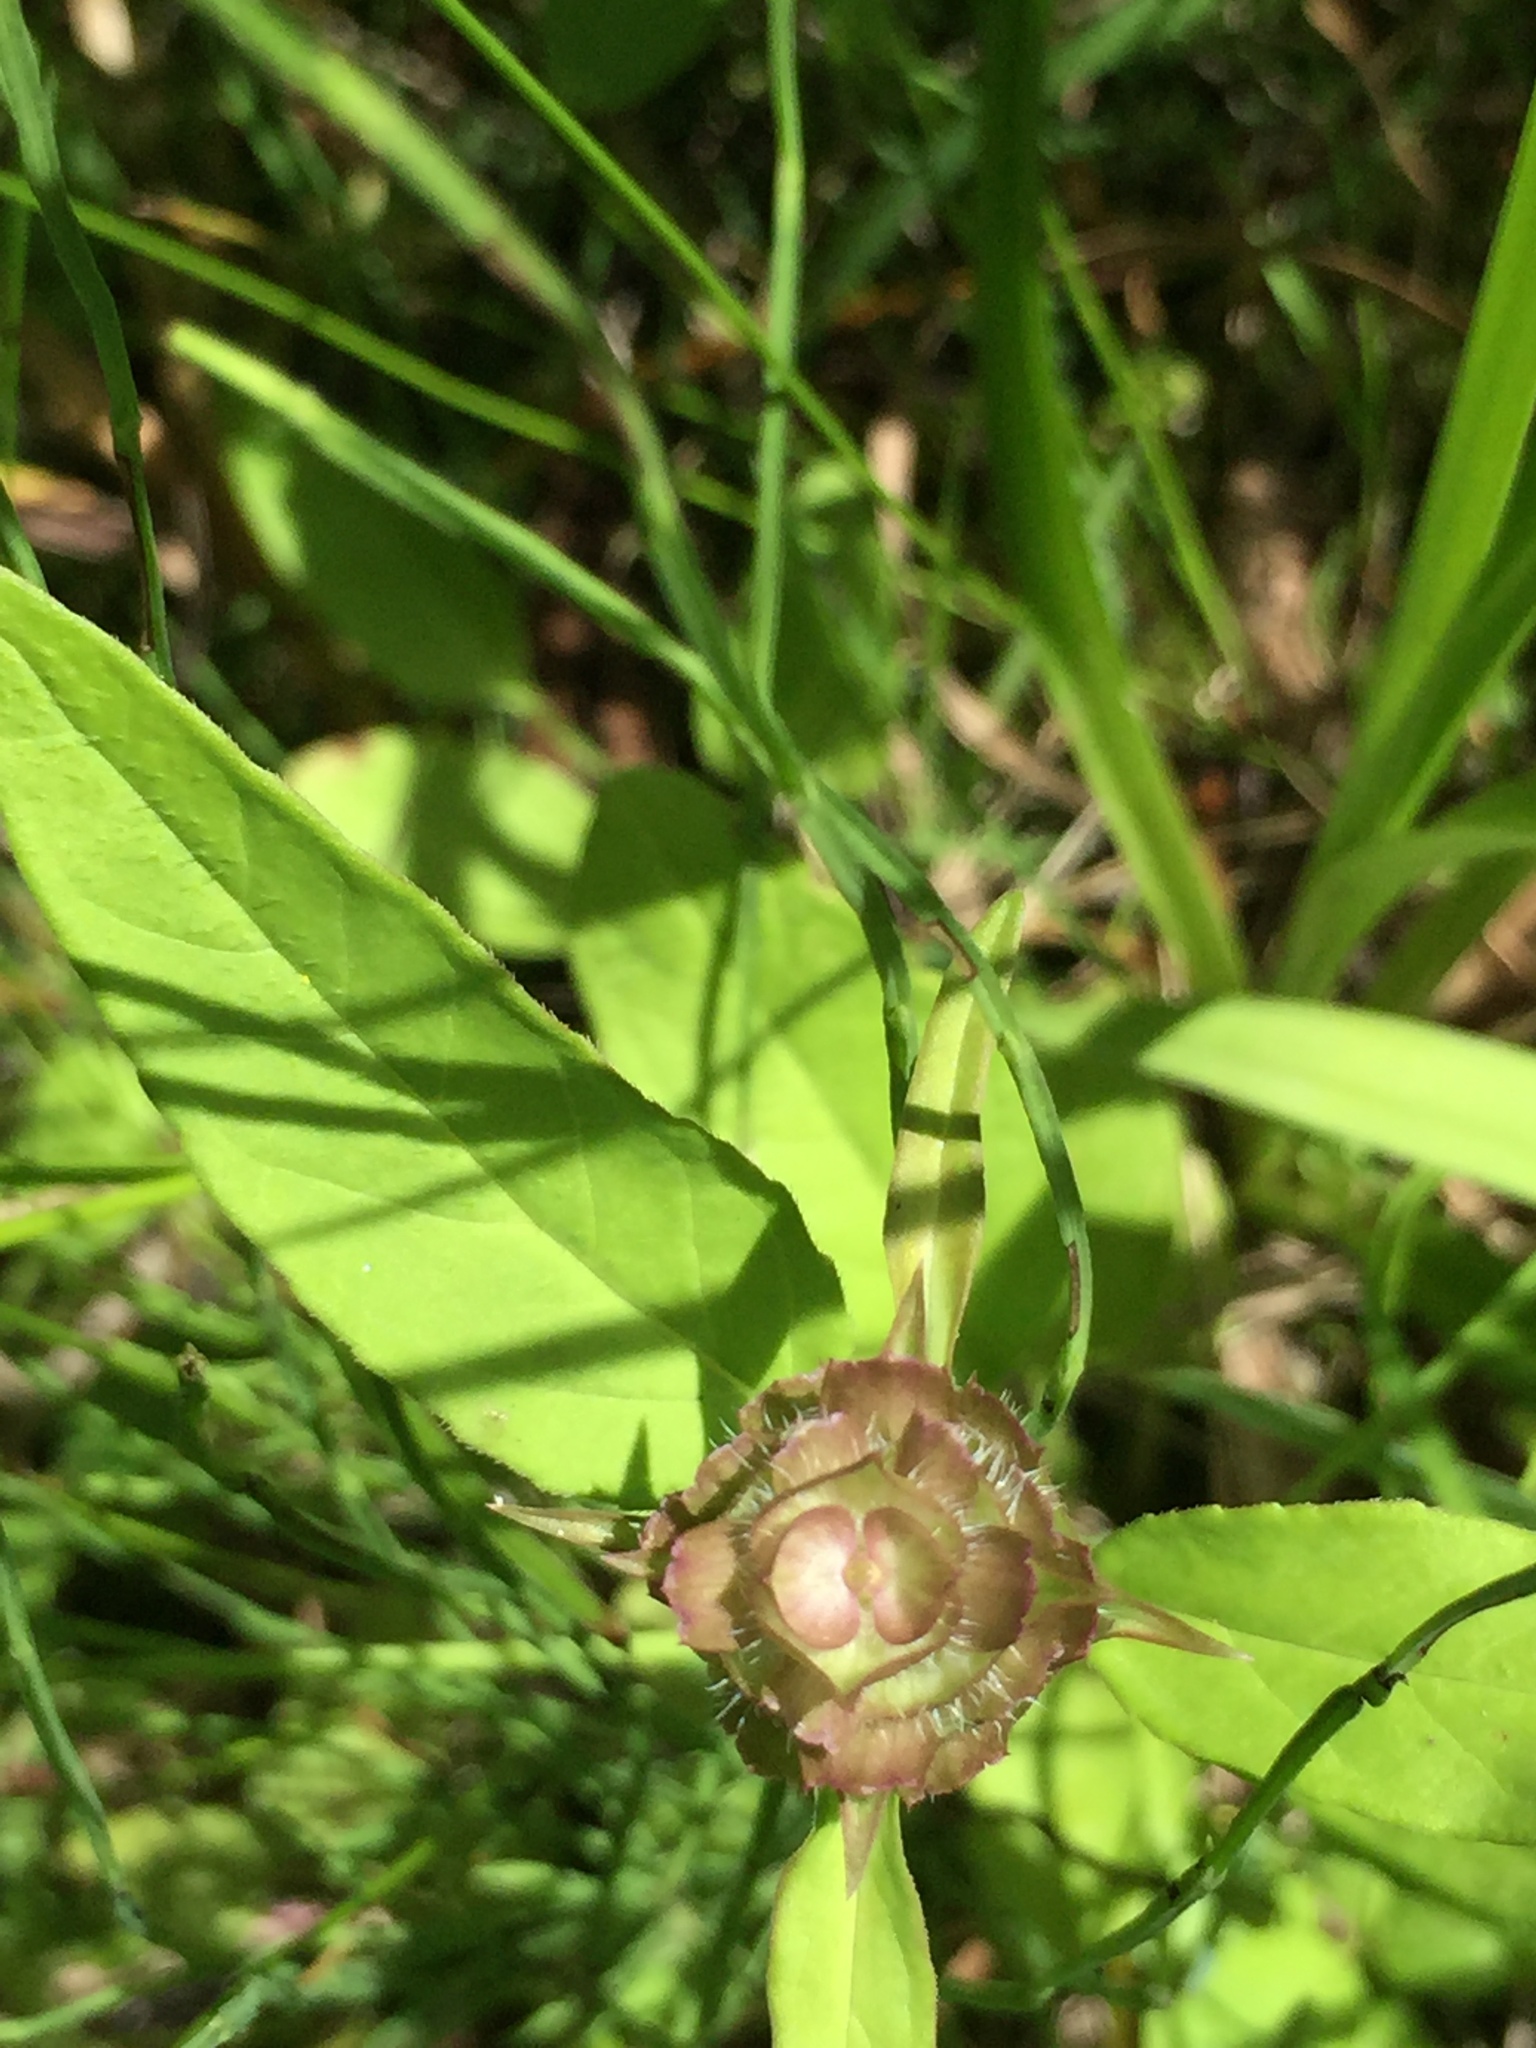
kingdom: Plantae
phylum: Tracheophyta
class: Magnoliopsida
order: Lamiales
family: Lamiaceae
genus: Prunella
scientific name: Prunella vulgaris
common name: Heal-all
